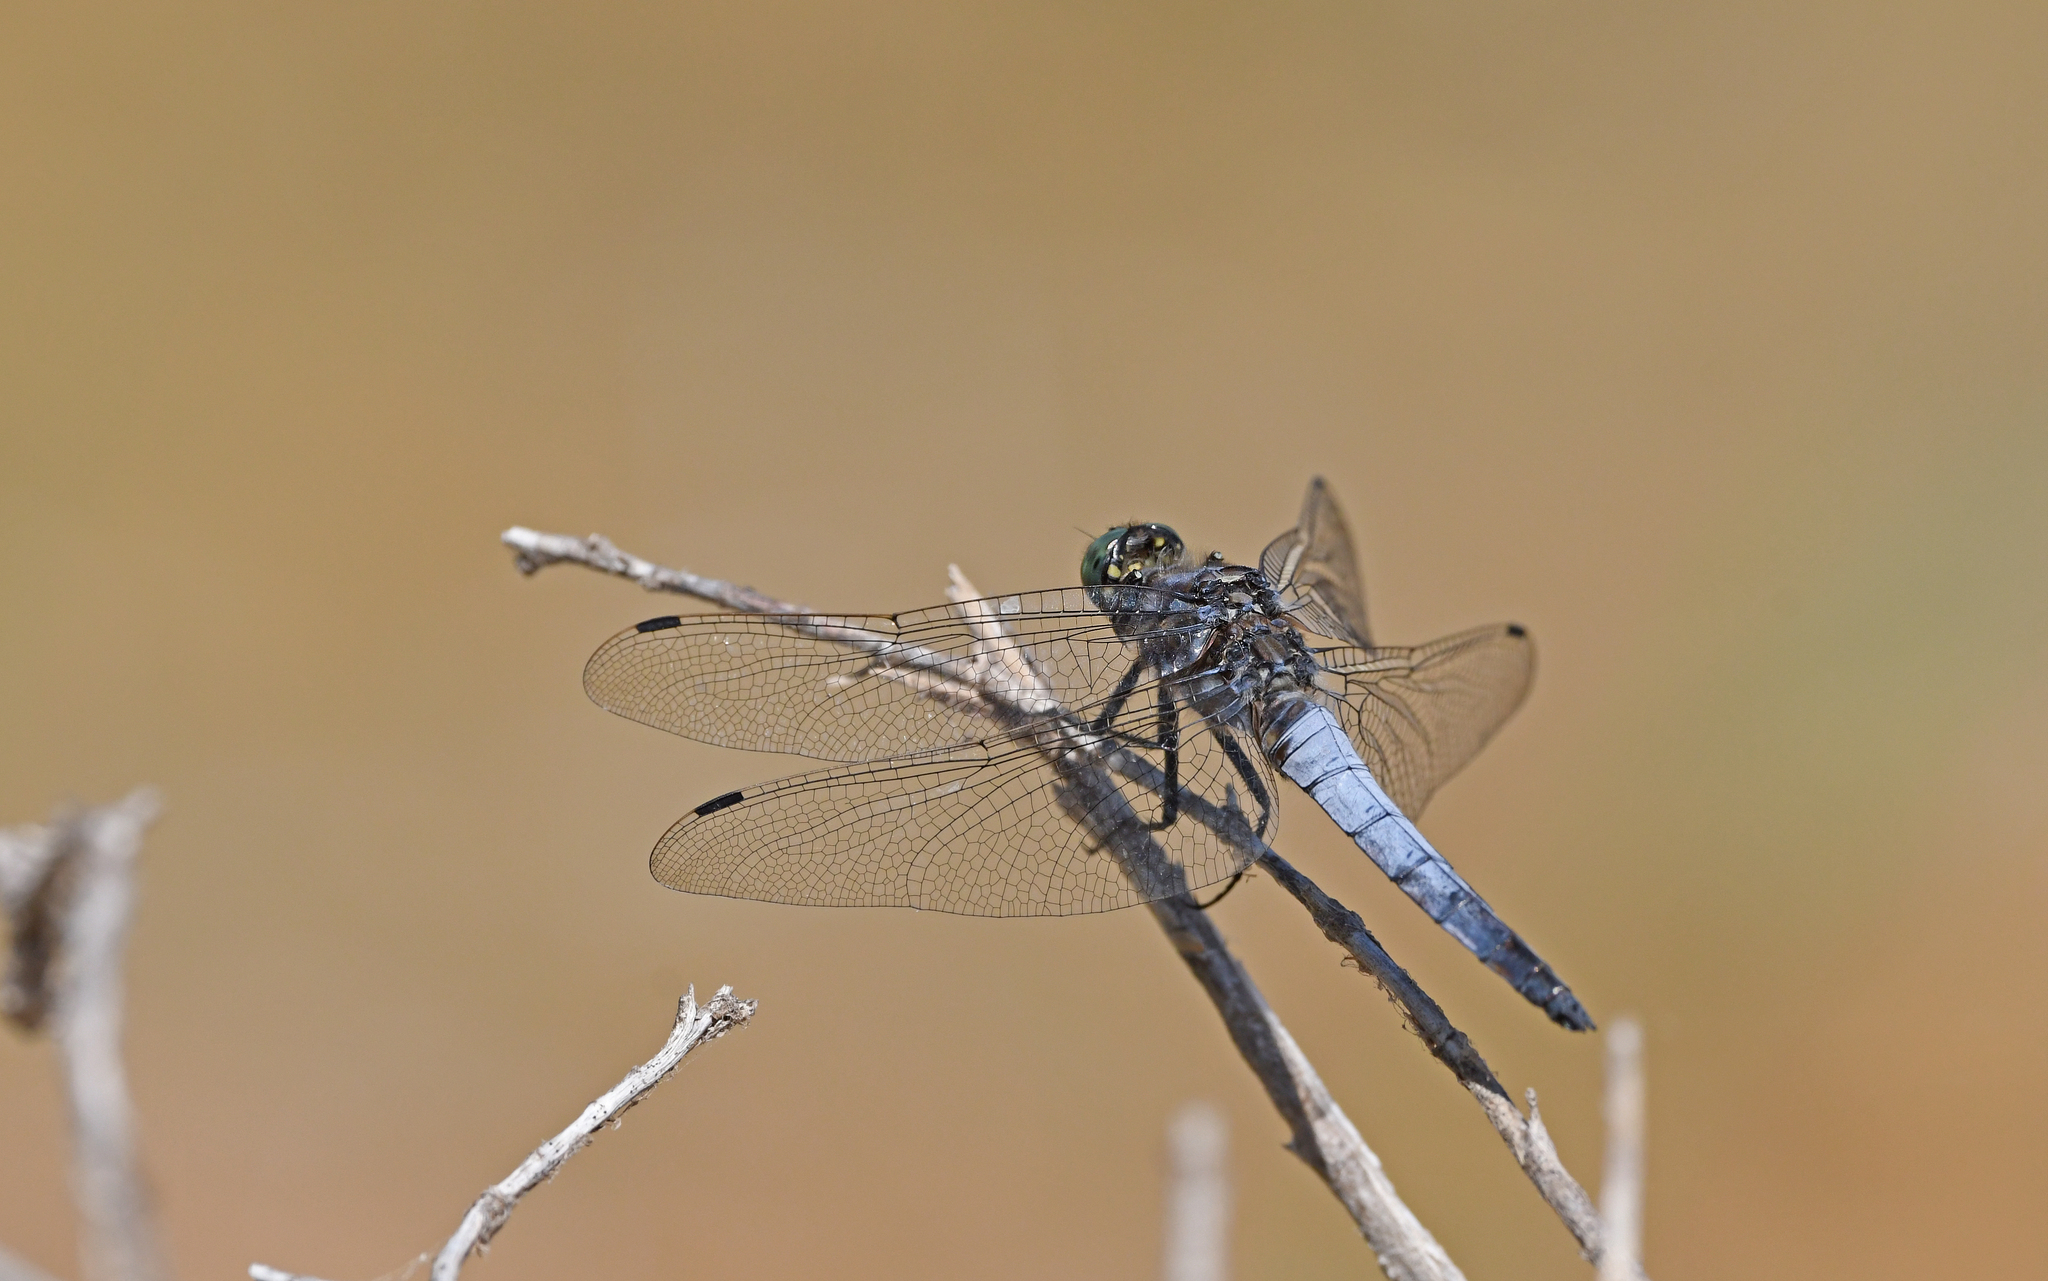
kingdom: Animalia
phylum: Arthropoda
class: Insecta
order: Odonata
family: Libellulidae
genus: Orthetrum
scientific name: Orthetrum cancellatum
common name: Black-tailed skimmer
